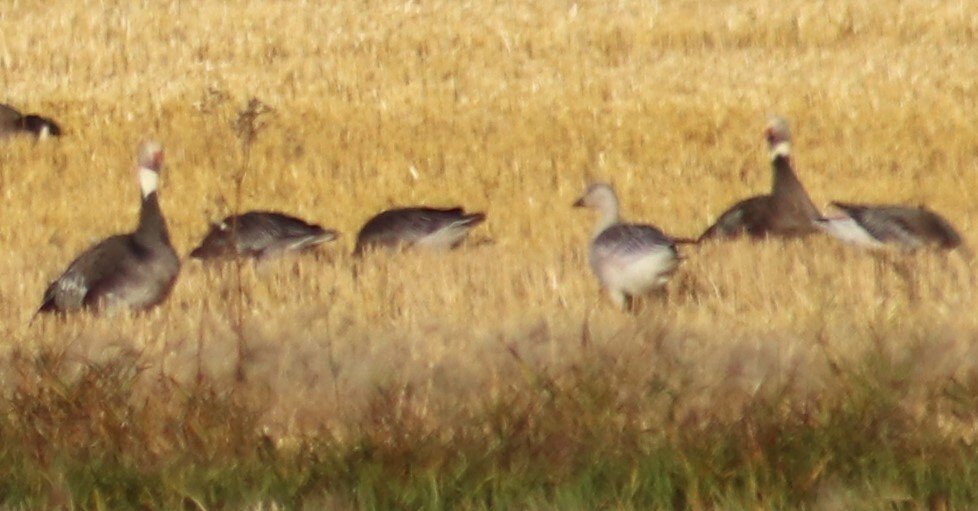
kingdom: Animalia
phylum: Chordata
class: Aves
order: Anseriformes
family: Anatidae
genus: Anser
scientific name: Anser caerulescens
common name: Snow goose
